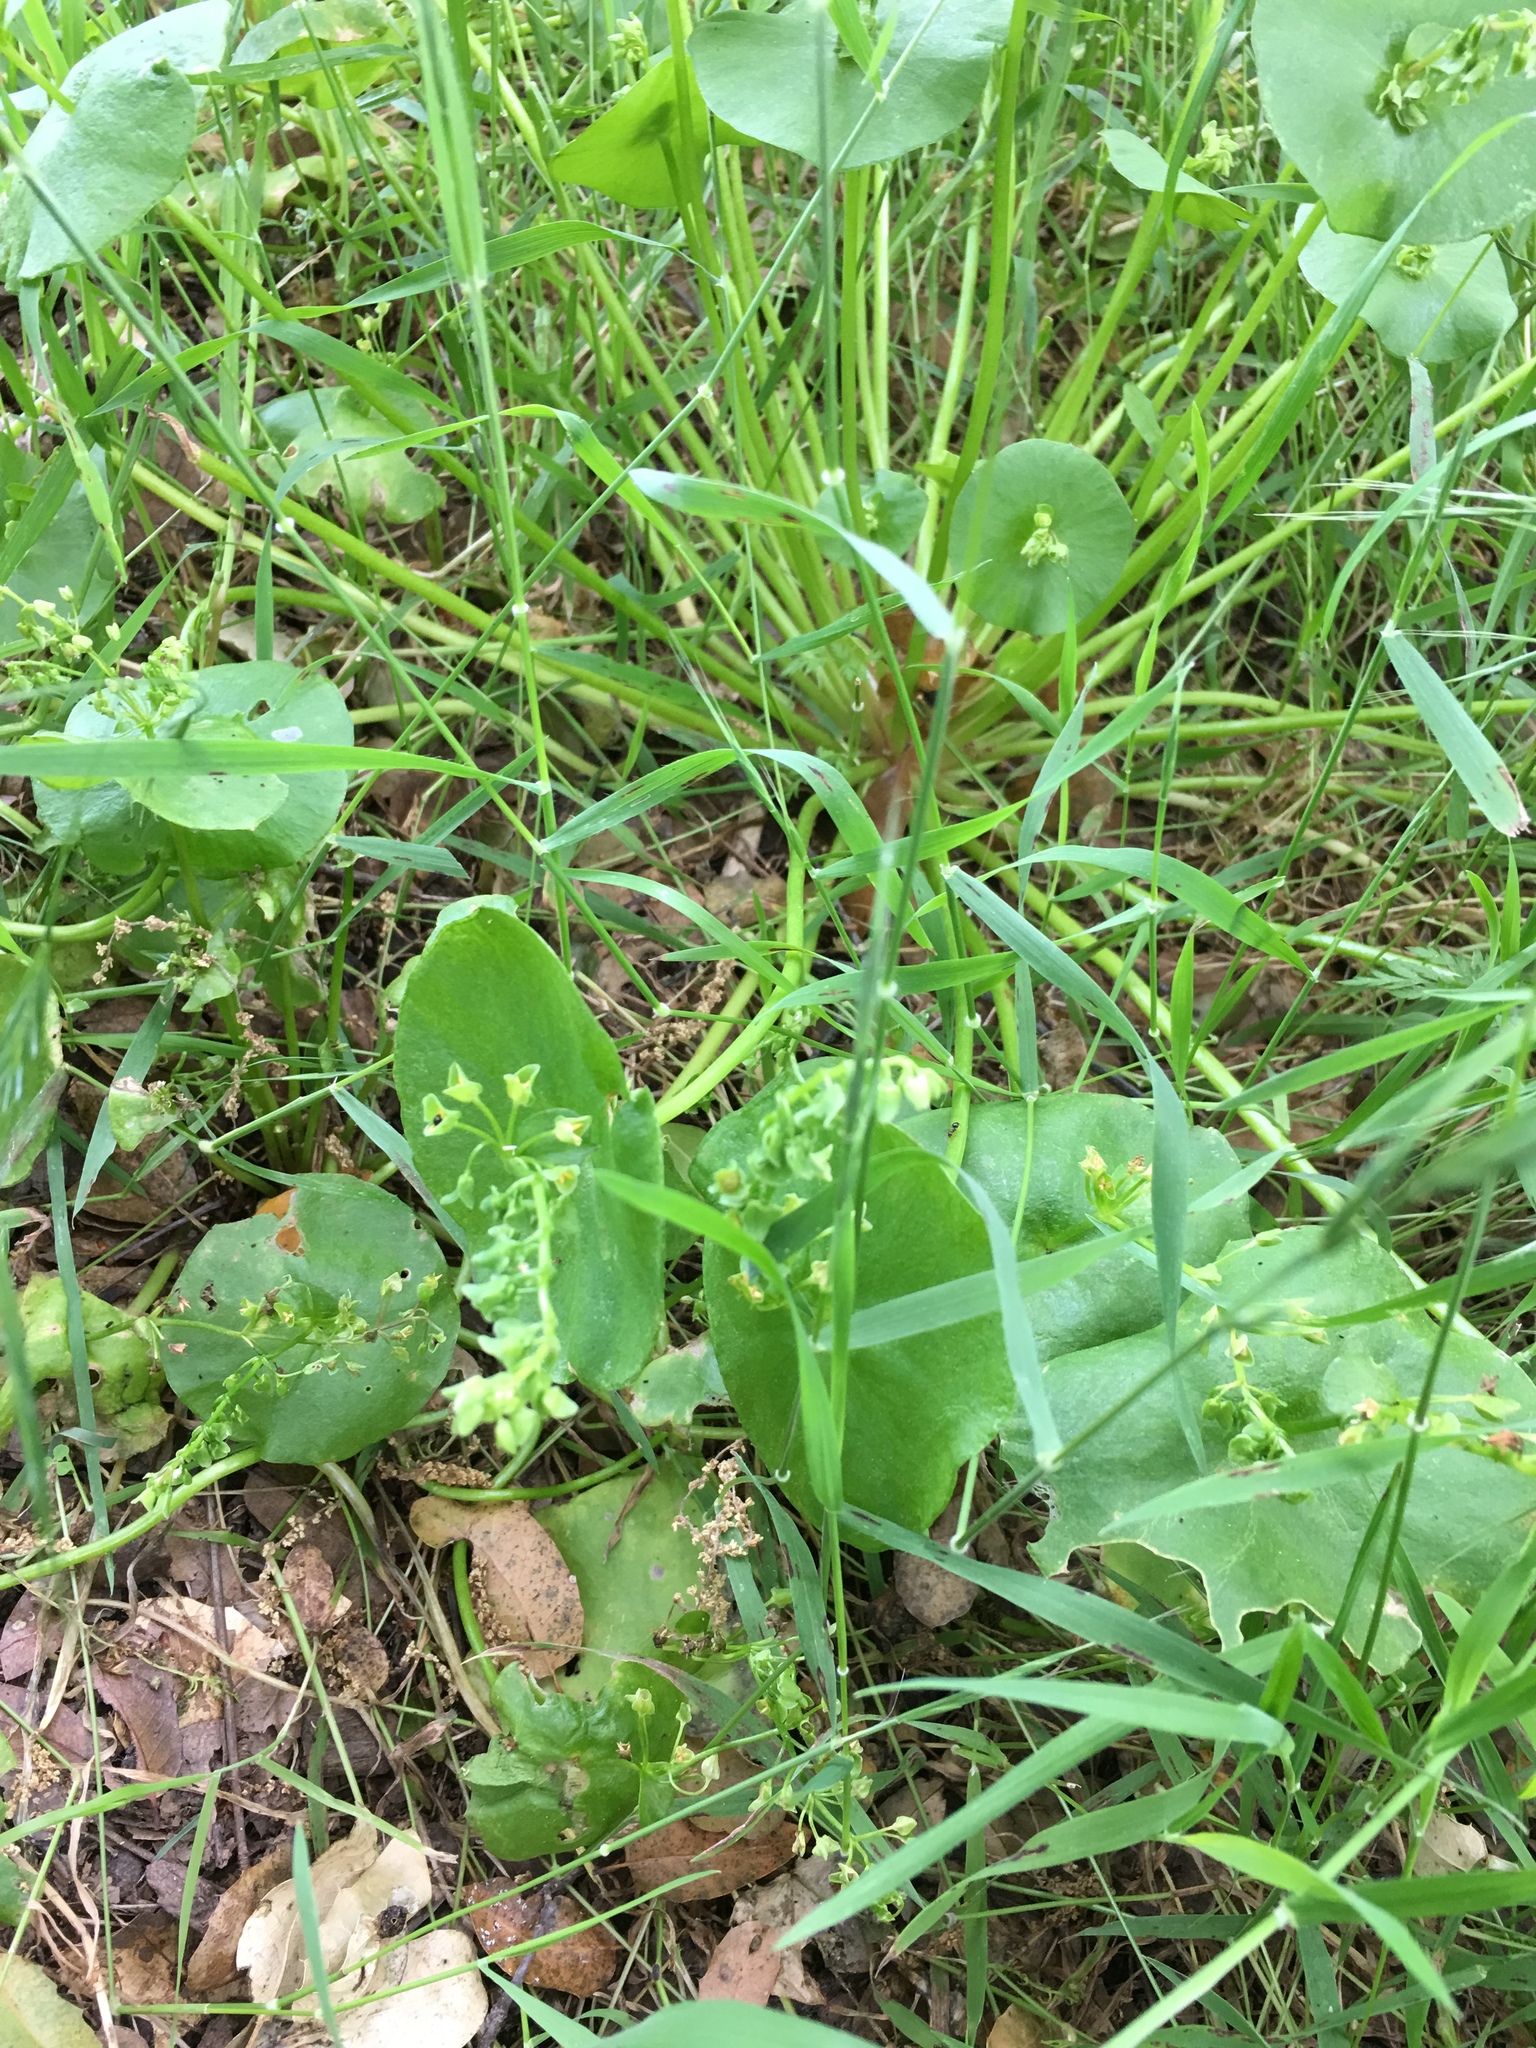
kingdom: Plantae
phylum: Tracheophyta
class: Magnoliopsida
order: Caryophyllales
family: Montiaceae
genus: Claytonia
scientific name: Claytonia perfoliata
